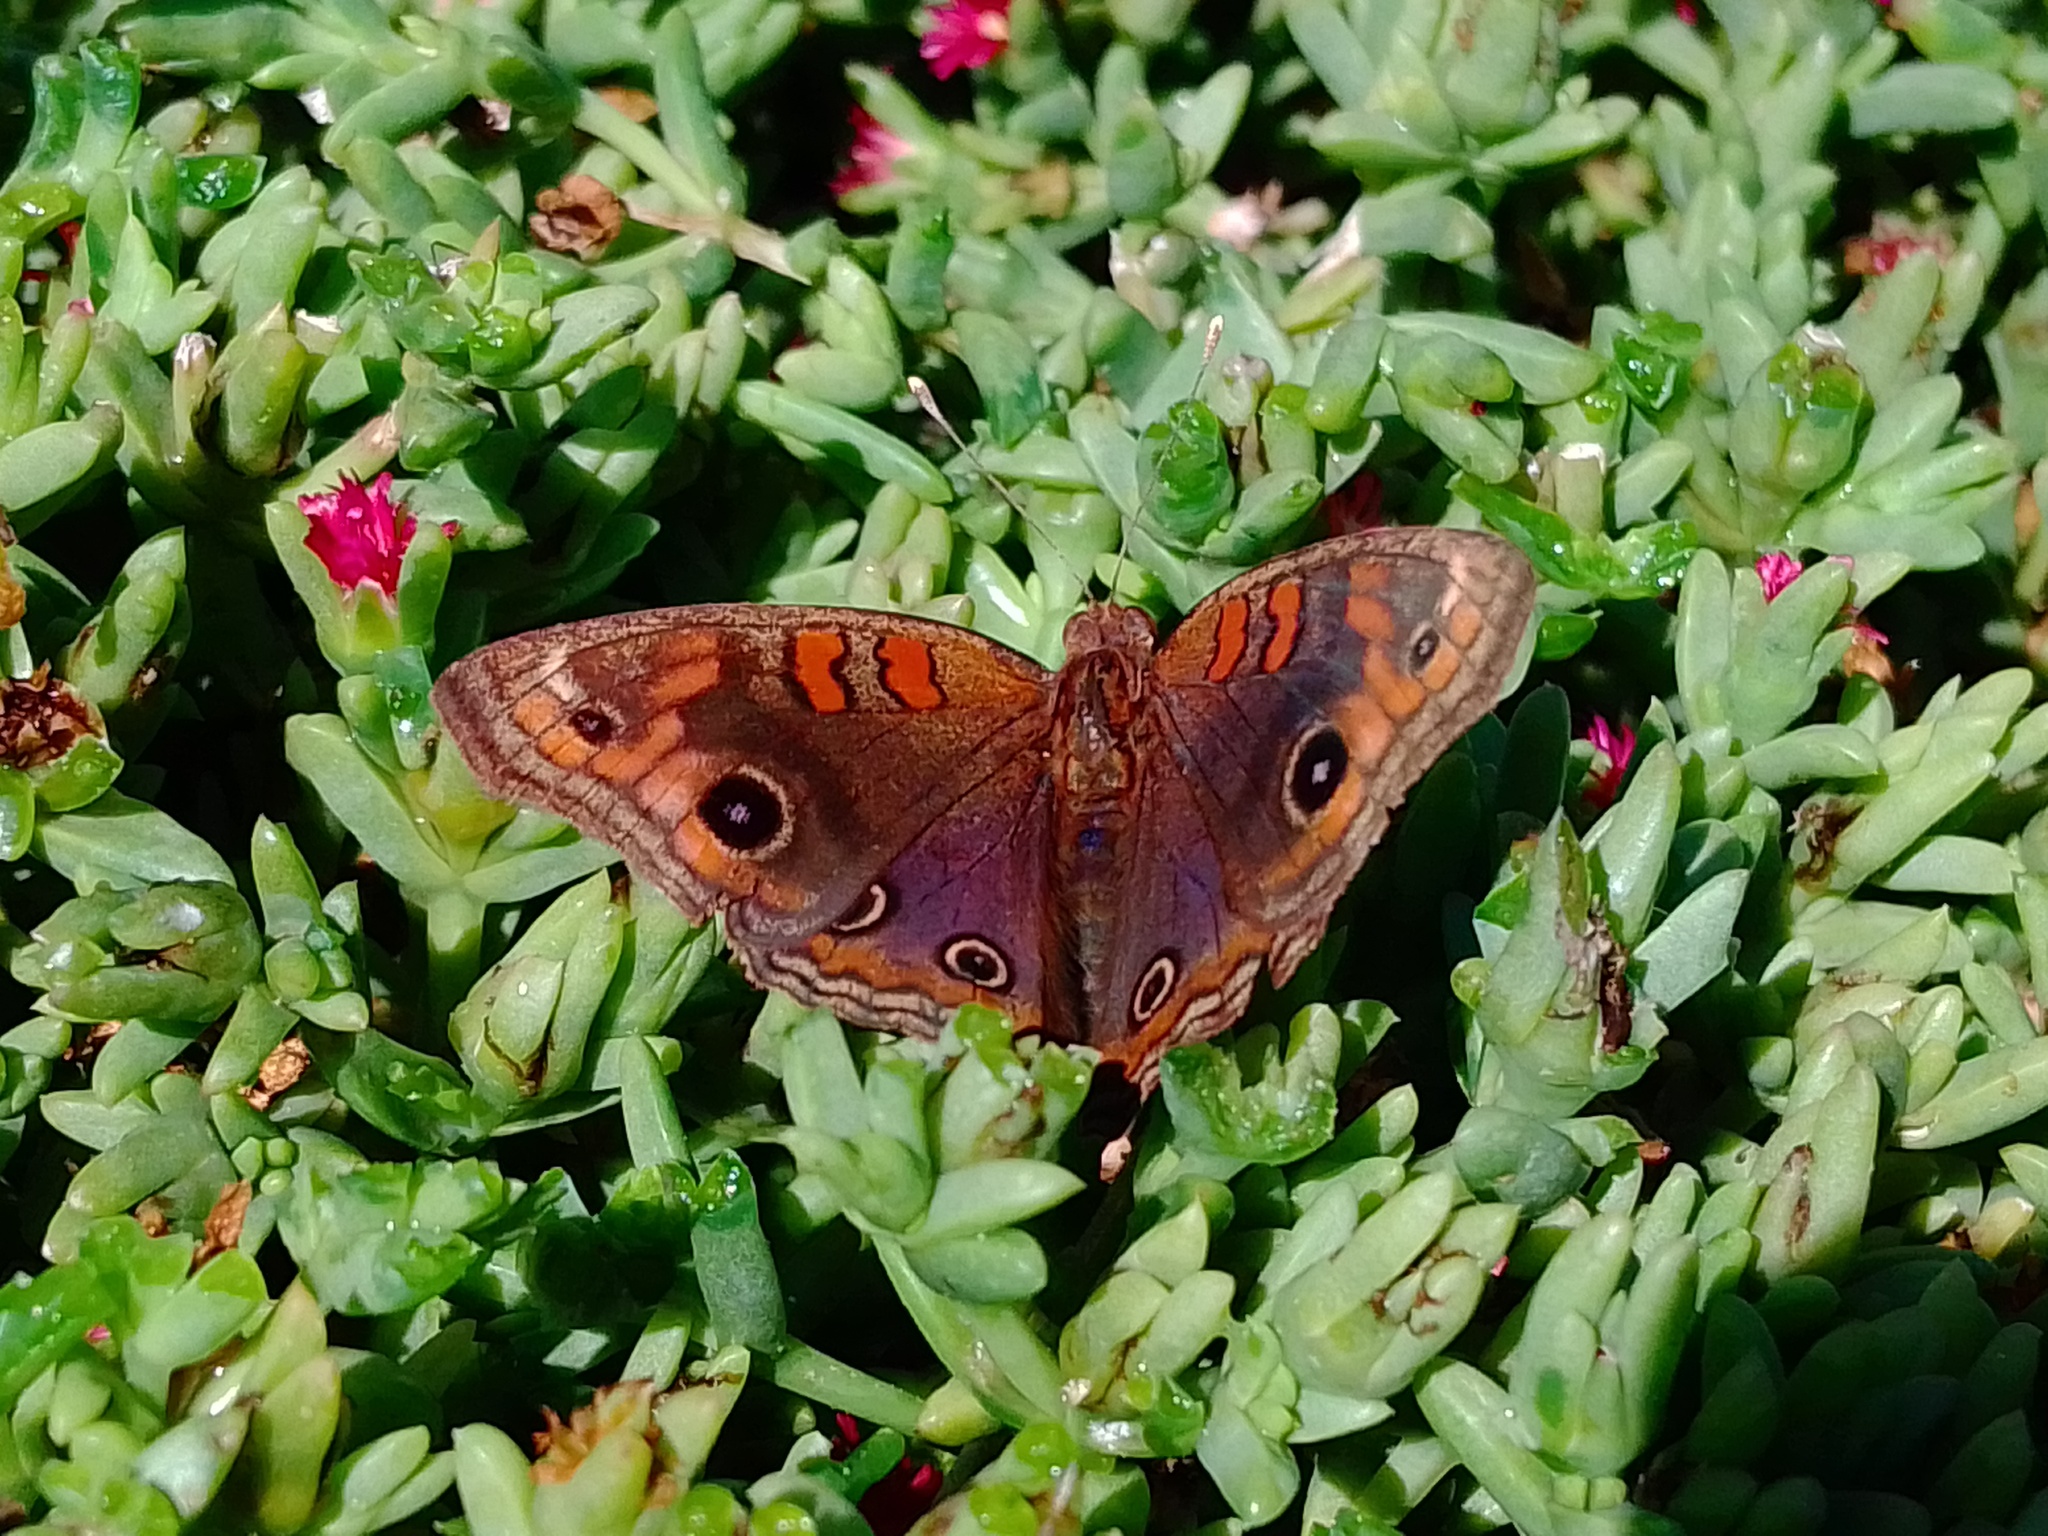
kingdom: Animalia
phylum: Arthropoda
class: Insecta
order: Lepidoptera
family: Nymphalidae
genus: Junonia
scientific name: Junonia lavinia
